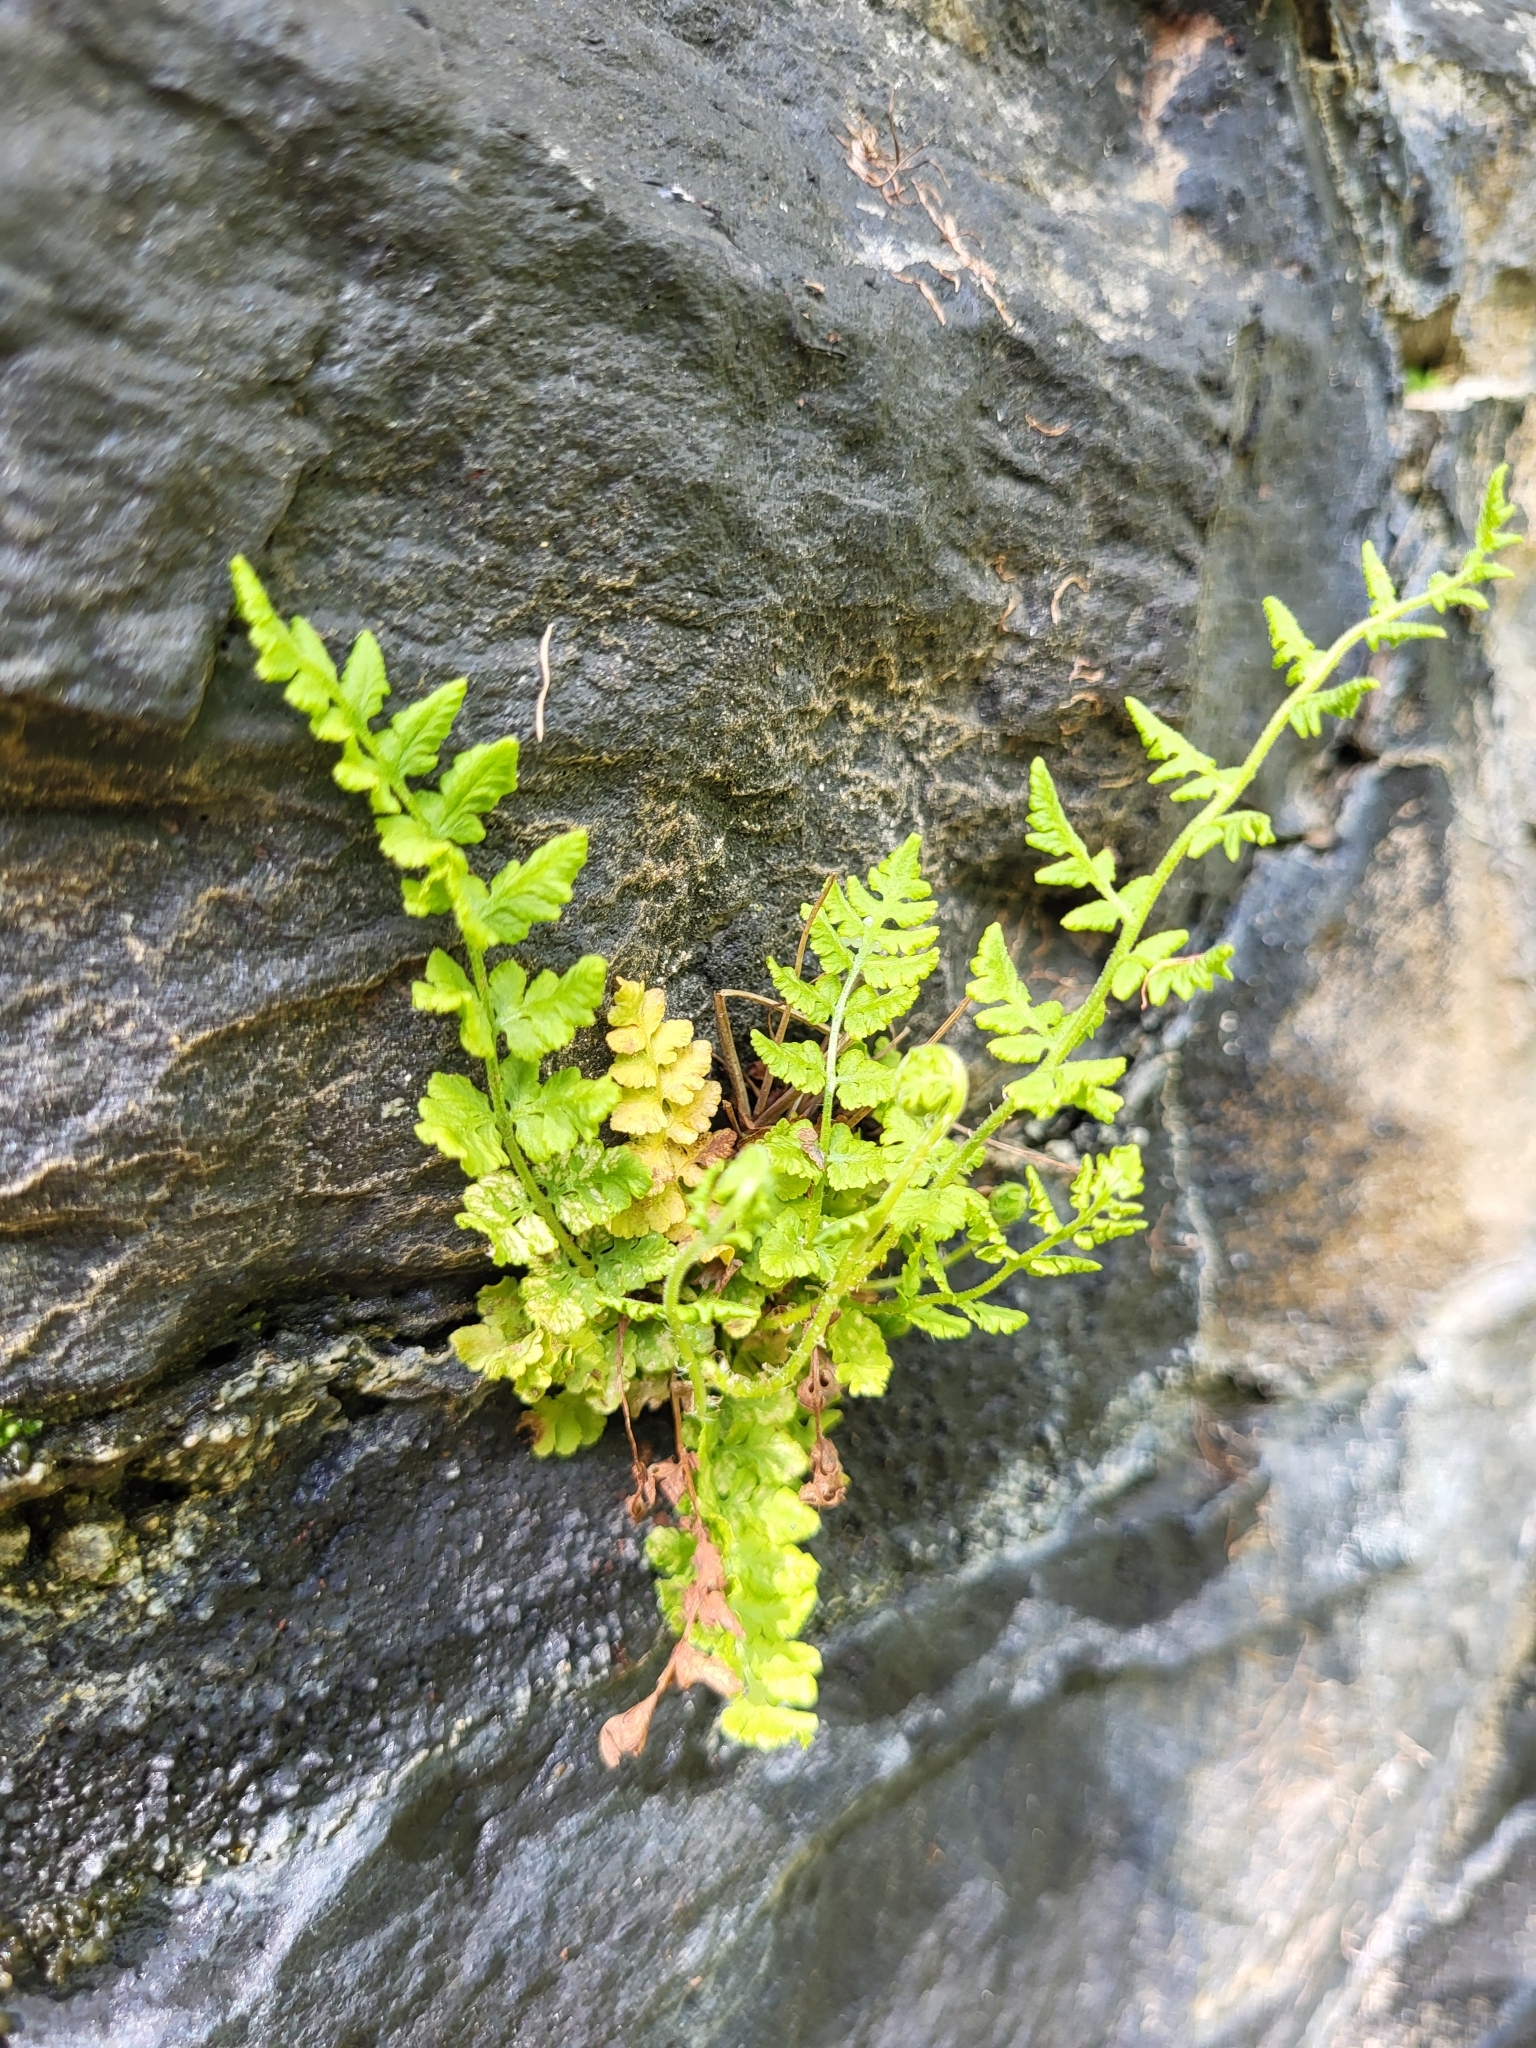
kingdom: Plantae
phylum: Tracheophyta
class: Polypodiopsida
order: Polypodiales
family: Woodsiaceae
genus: Physematium
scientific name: Physematium obtusum
